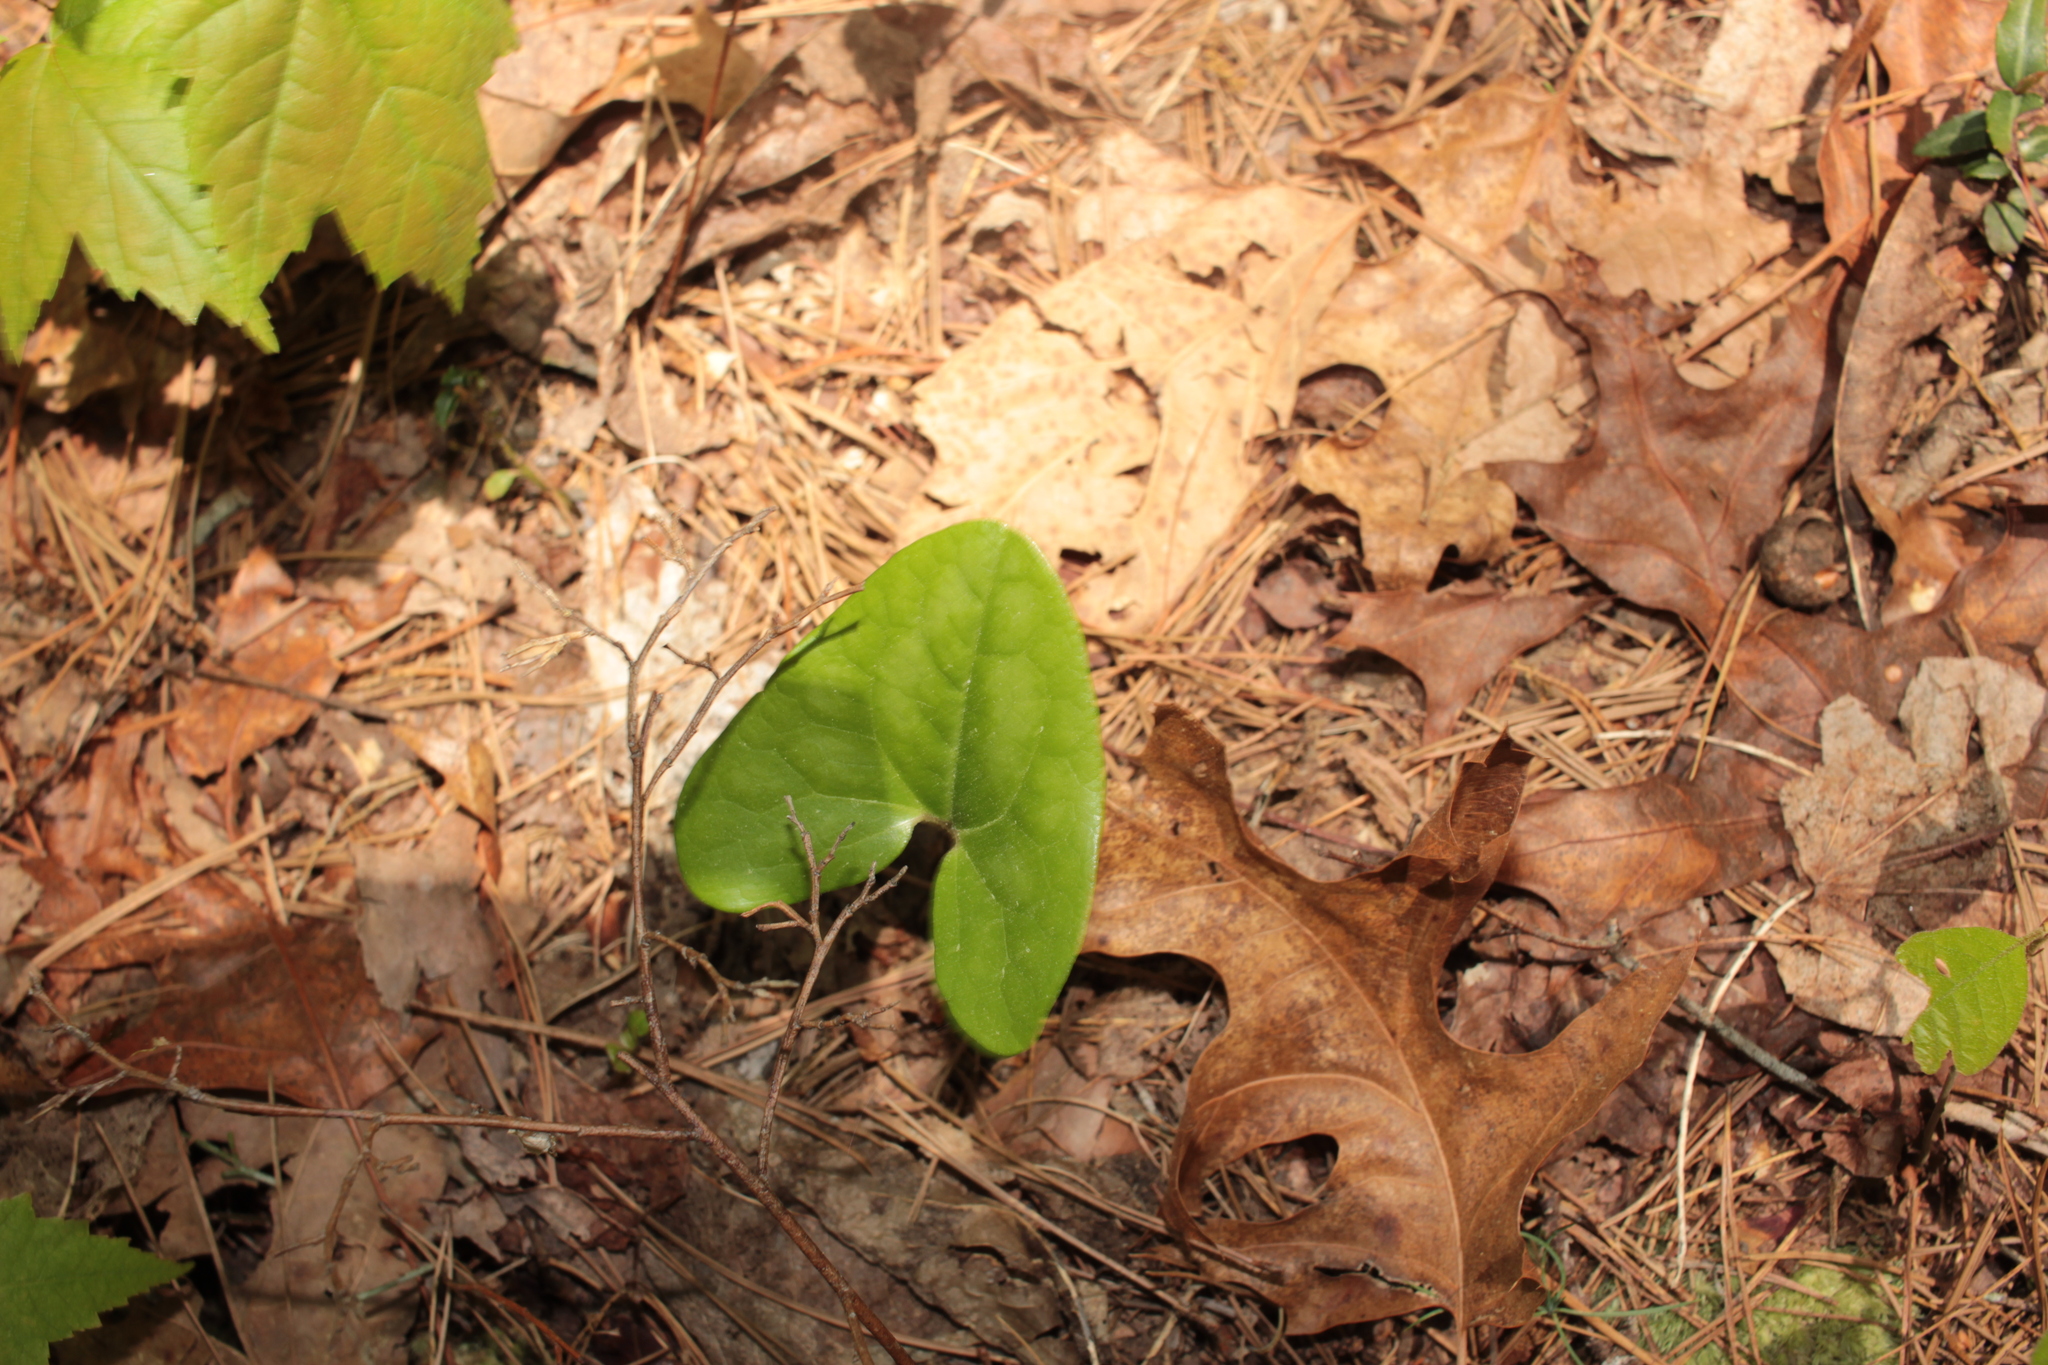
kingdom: Plantae
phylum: Tracheophyta
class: Magnoliopsida
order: Piperales
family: Aristolochiaceae
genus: Hexastylis
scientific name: Hexastylis arifolia
